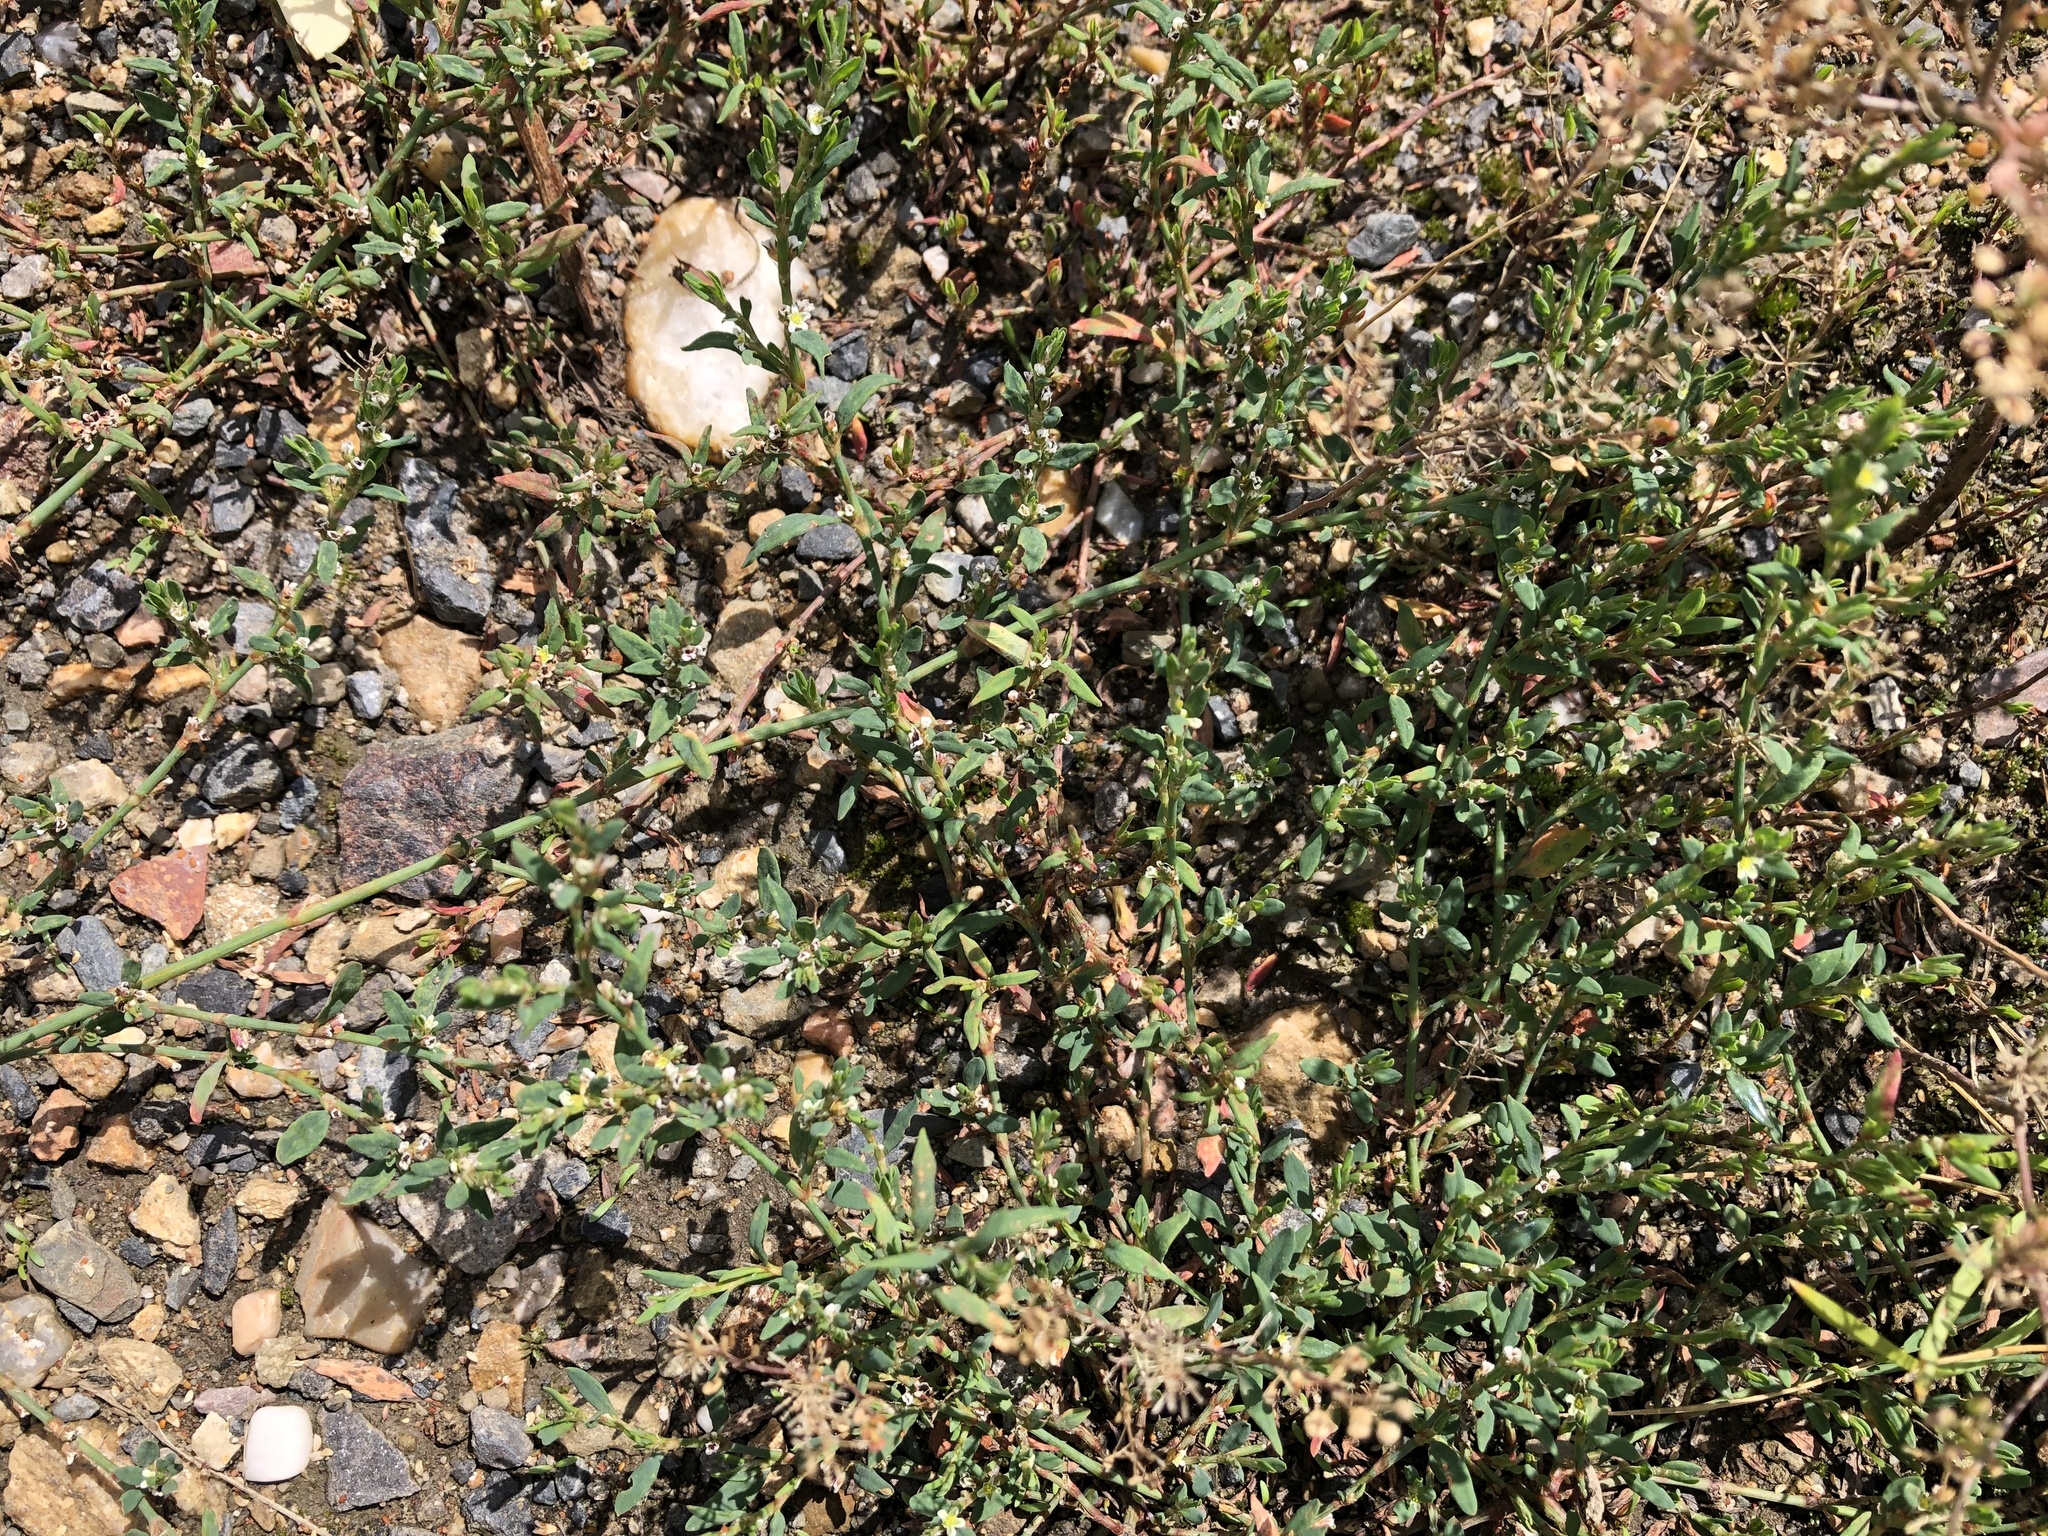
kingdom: Plantae
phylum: Tracheophyta
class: Magnoliopsida
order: Caryophyllales
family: Polygonaceae
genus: Polygonum
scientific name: Polygonum
